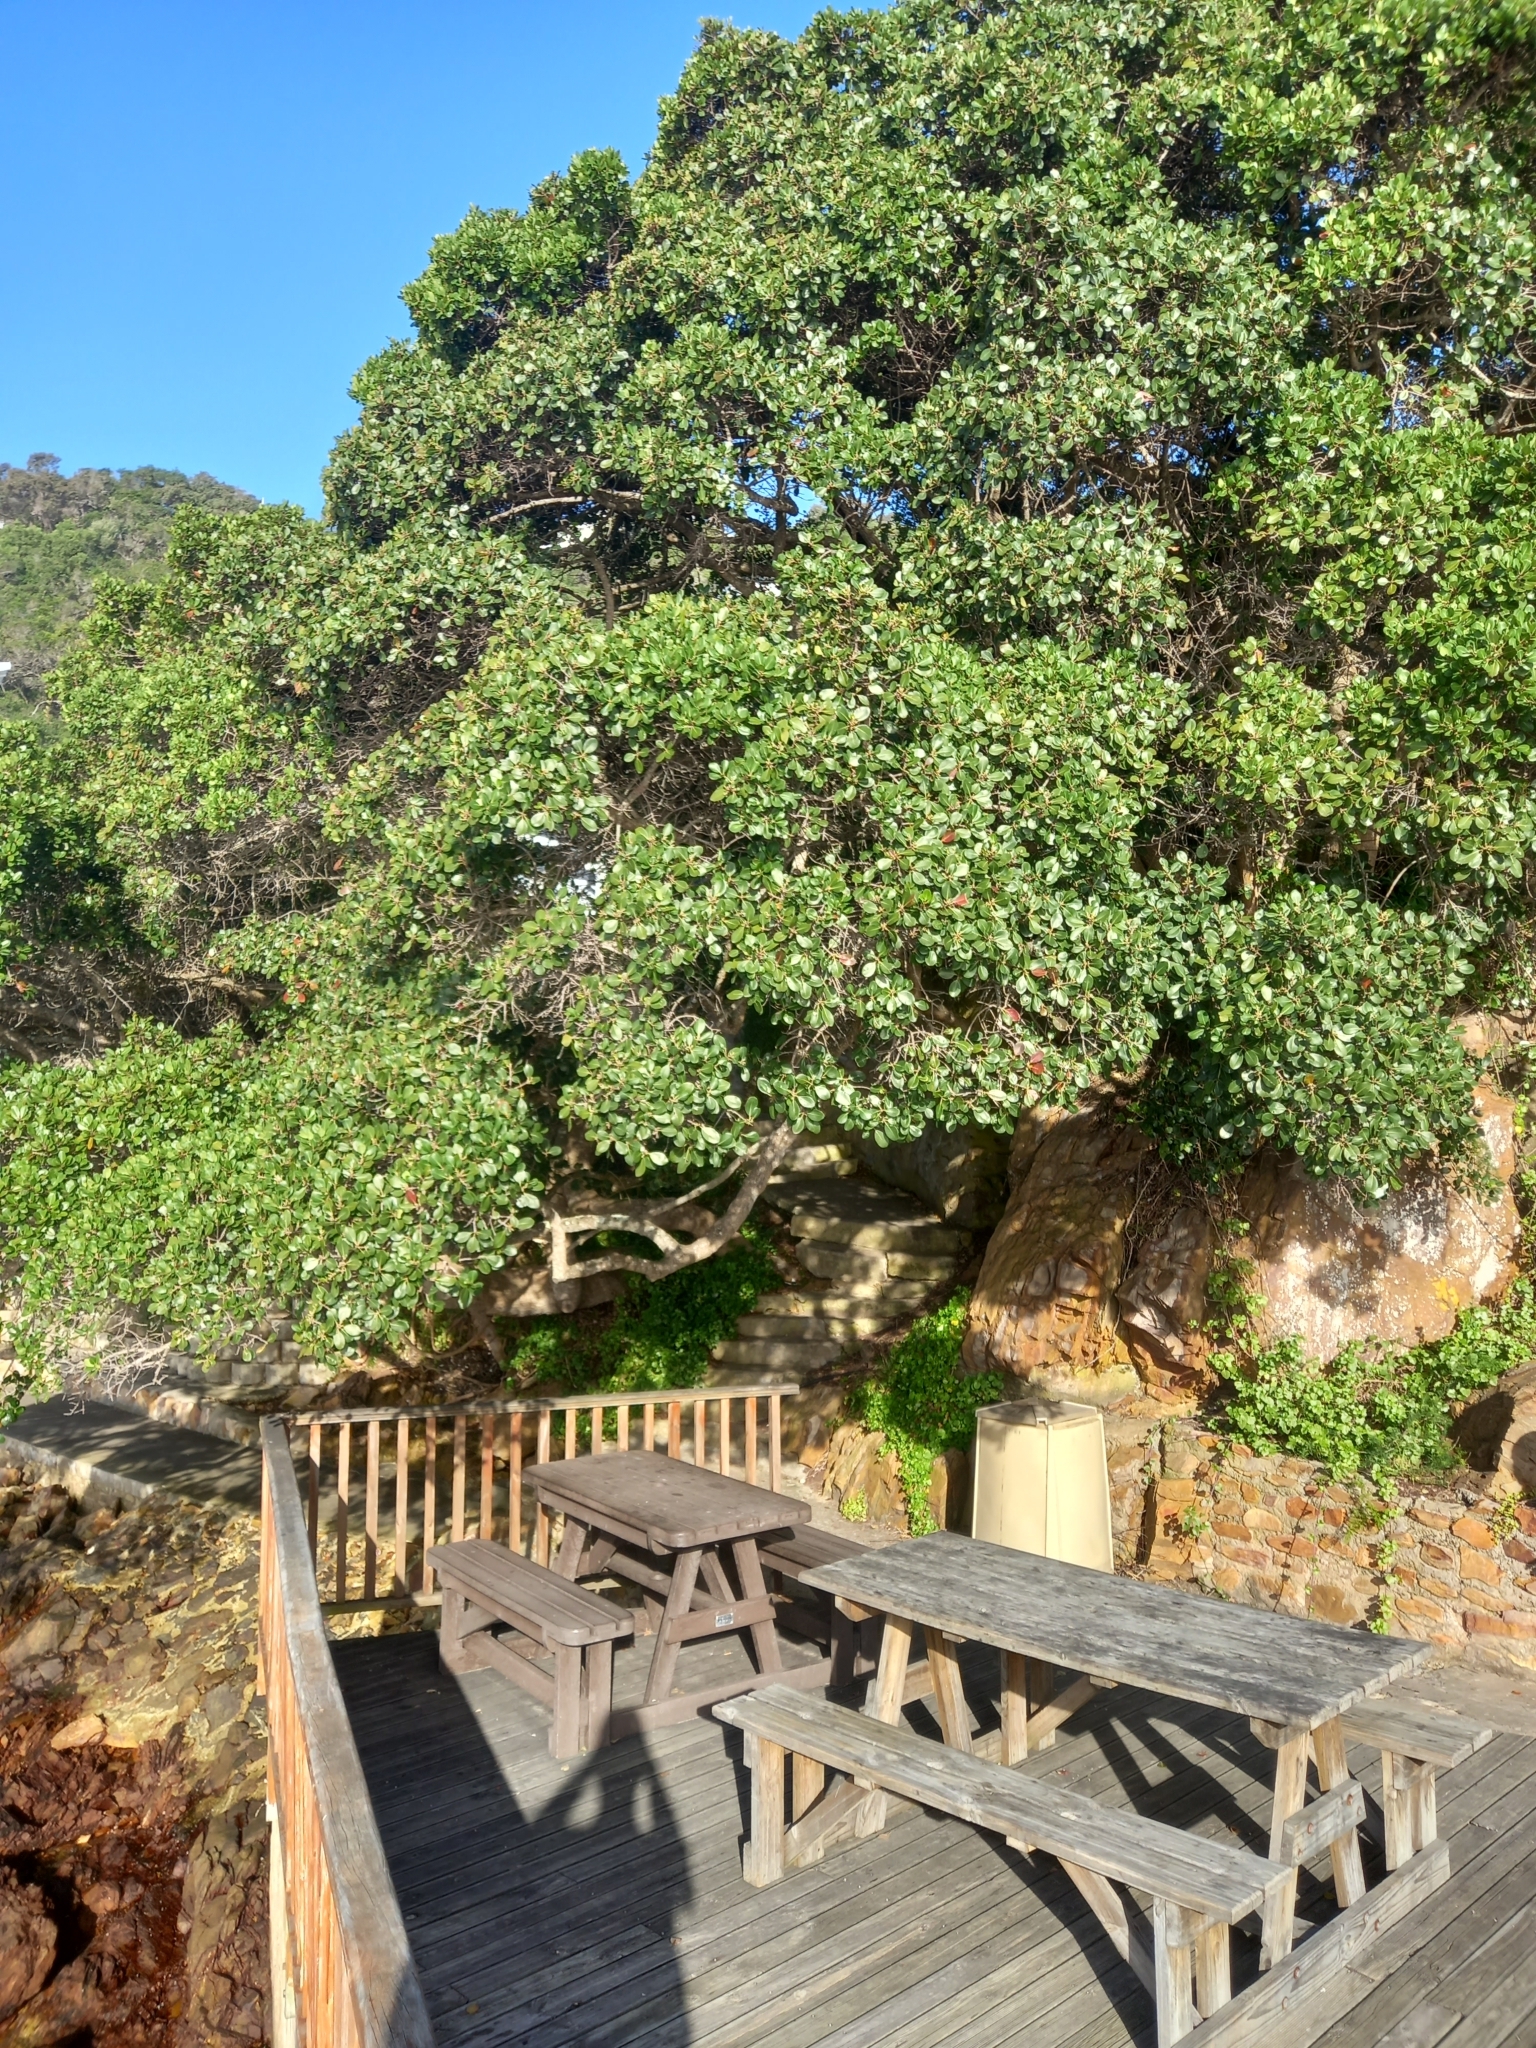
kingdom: Plantae
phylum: Tracheophyta
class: Magnoliopsida
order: Ericales
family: Sapotaceae
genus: Sideroxylon
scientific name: Sideroxylon inerme
